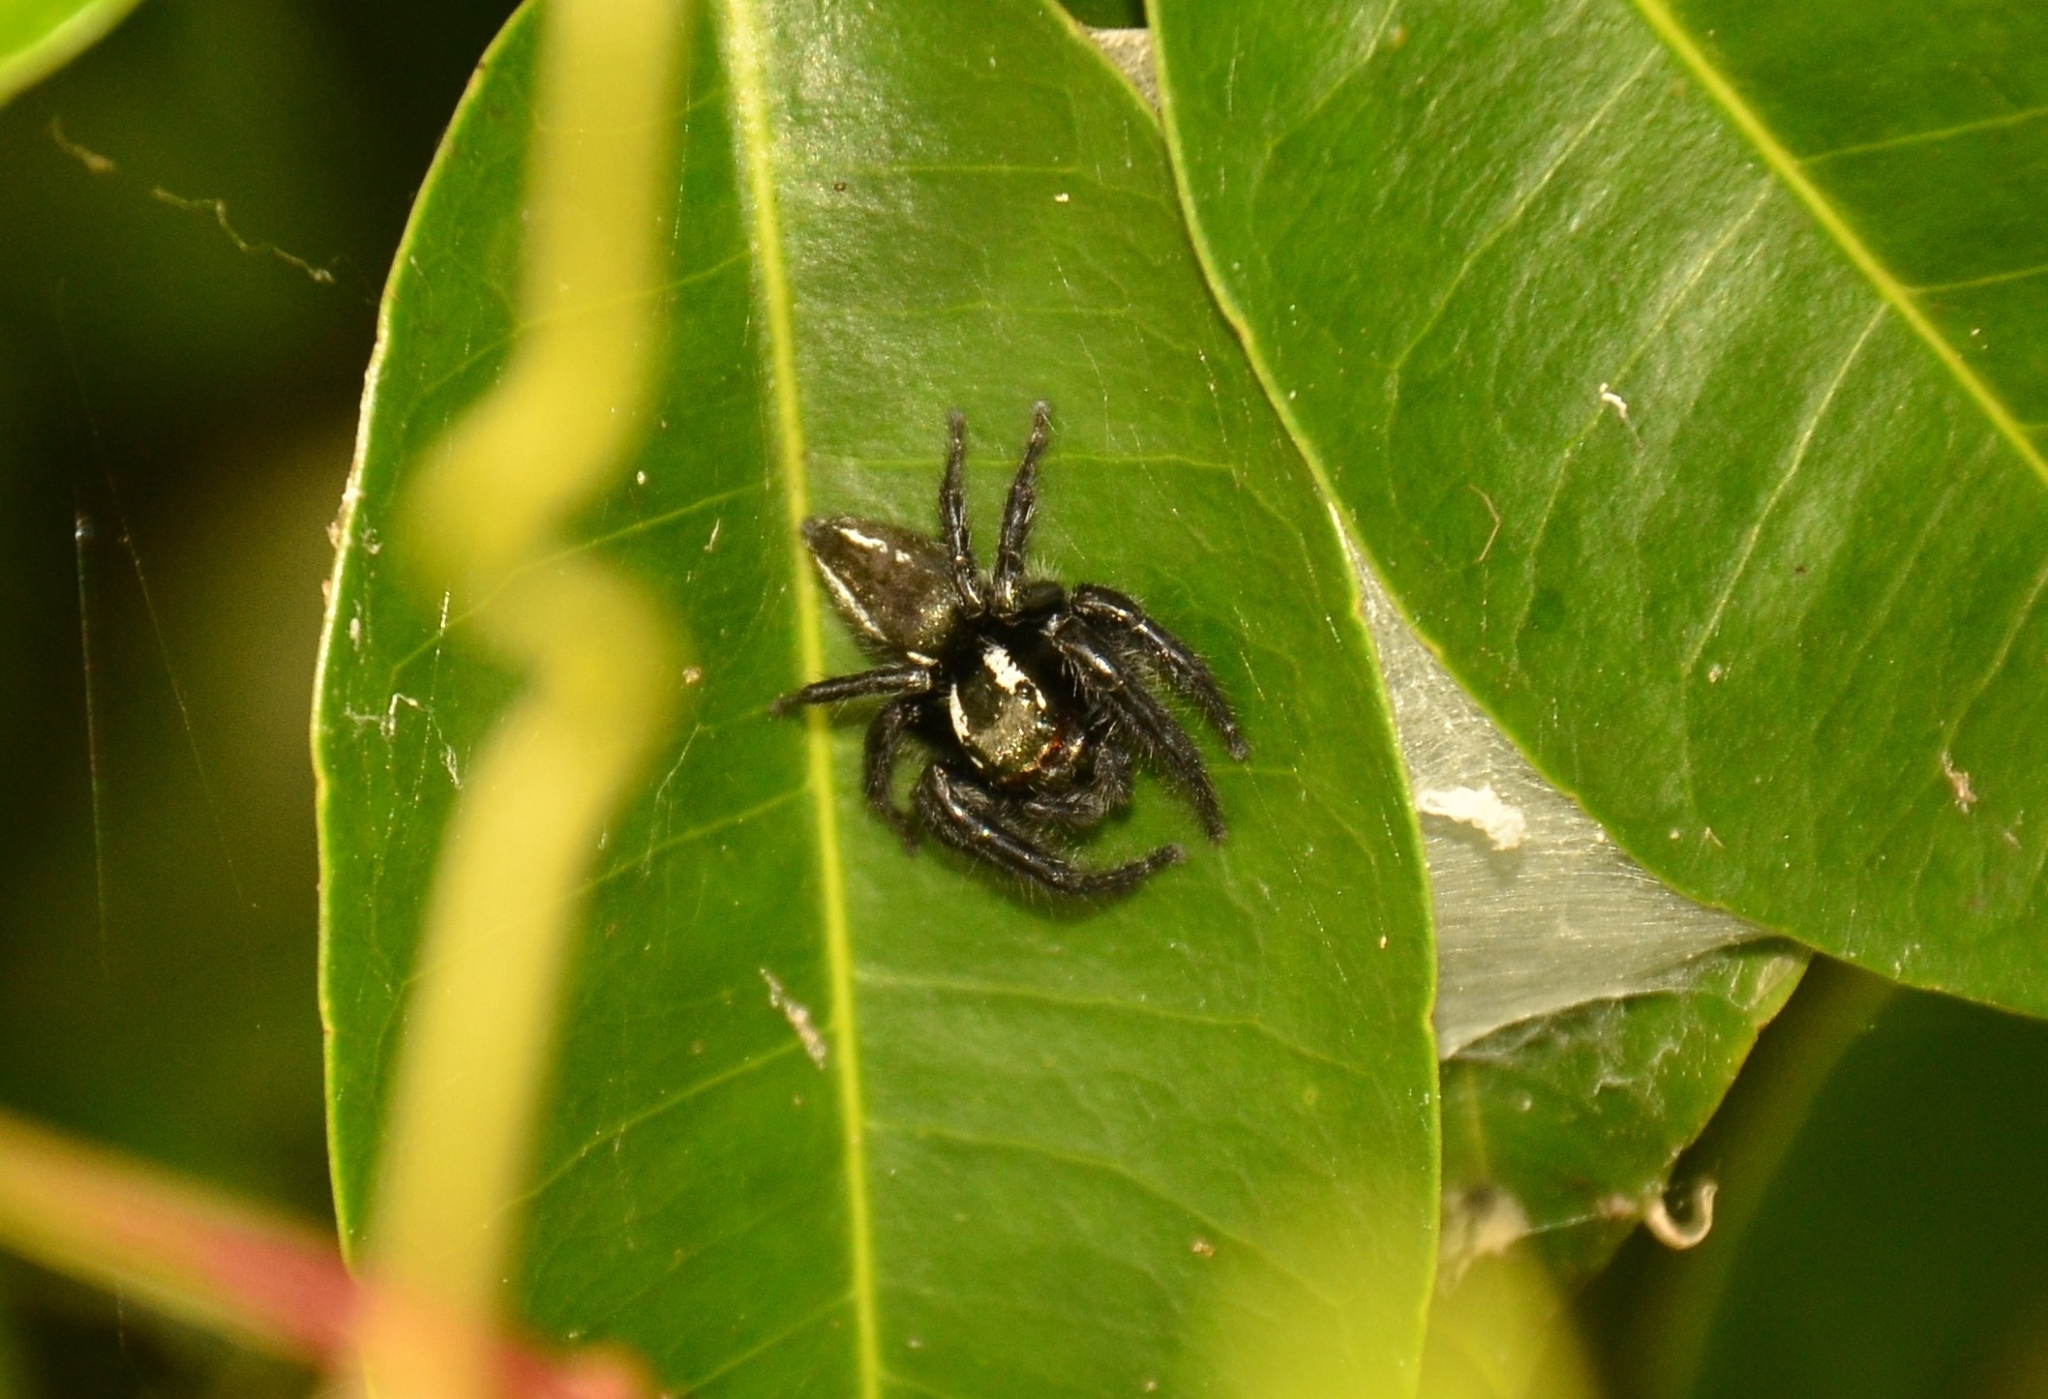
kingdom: Animalia
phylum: Arthropoda
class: Arachnida
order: Araneae
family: Salticidae
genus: Carrhotus
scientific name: Carrhotus viduus
